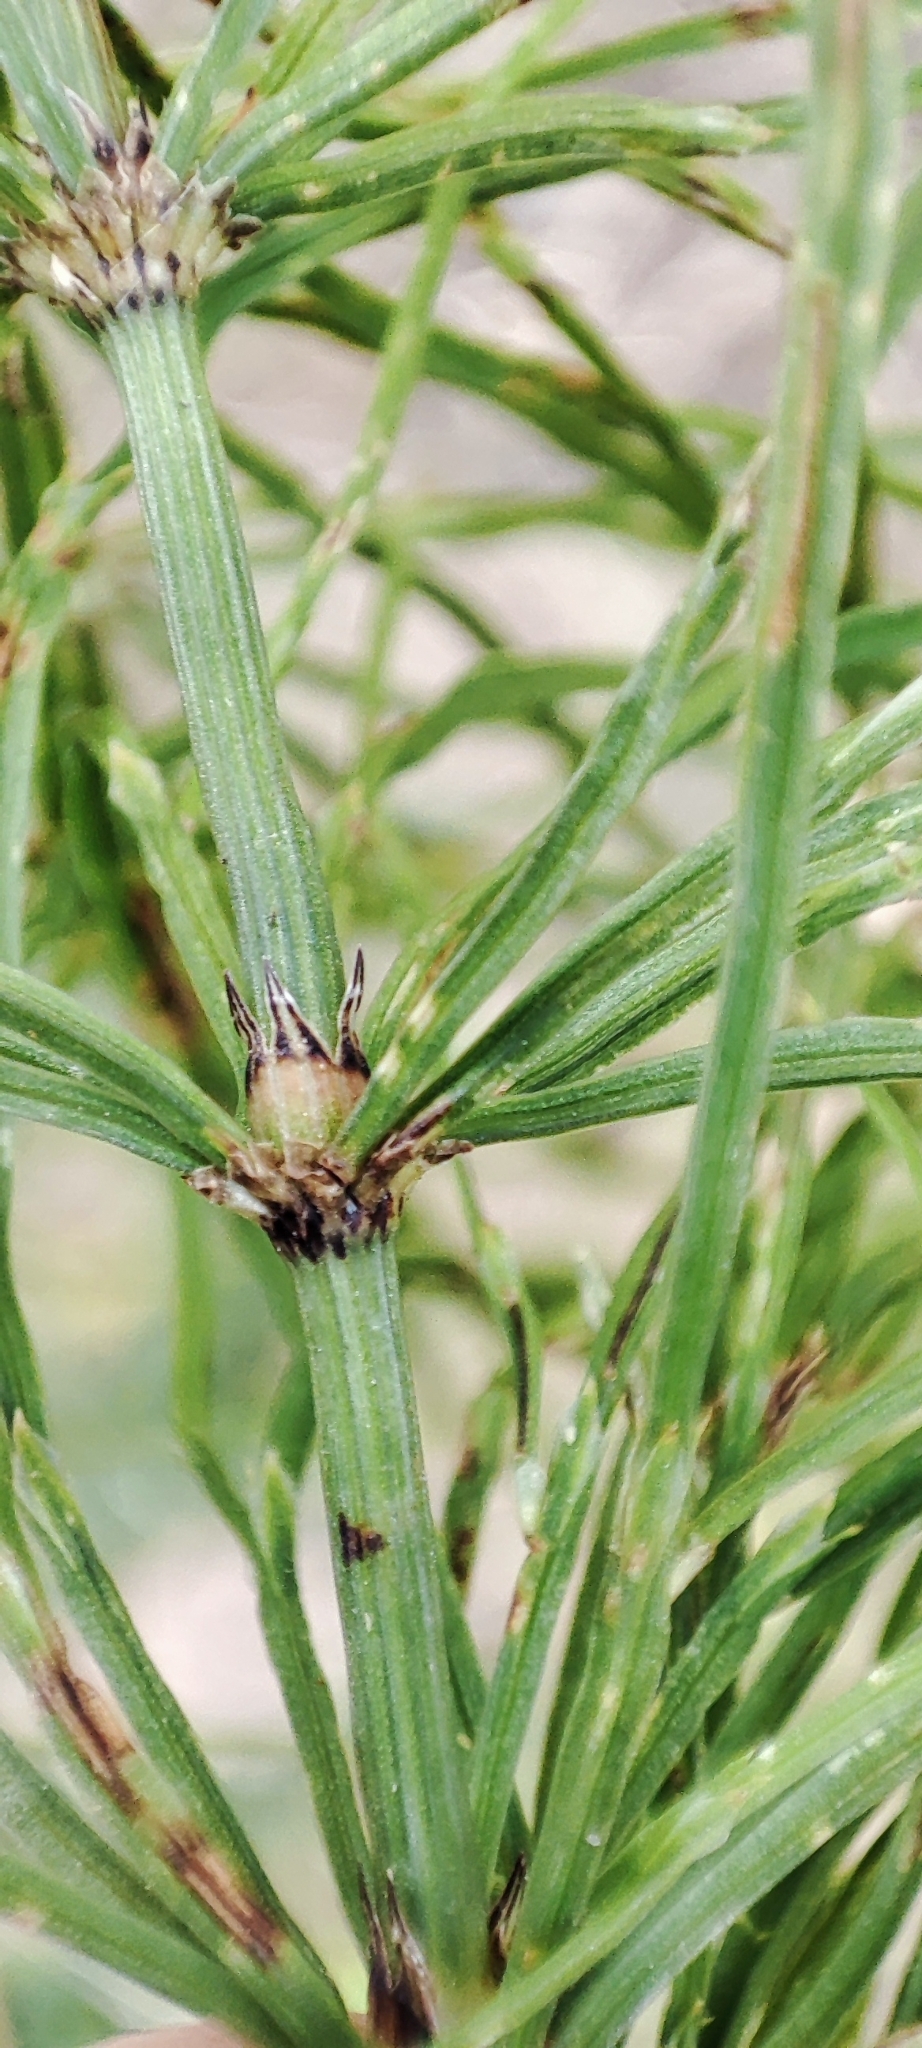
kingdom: Plantae
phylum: Tracheophyta
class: Polypodiopsida
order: Equisetales
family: Equisetaceae
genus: Equisetum
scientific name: Equisetum arvense
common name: Field horsetail
